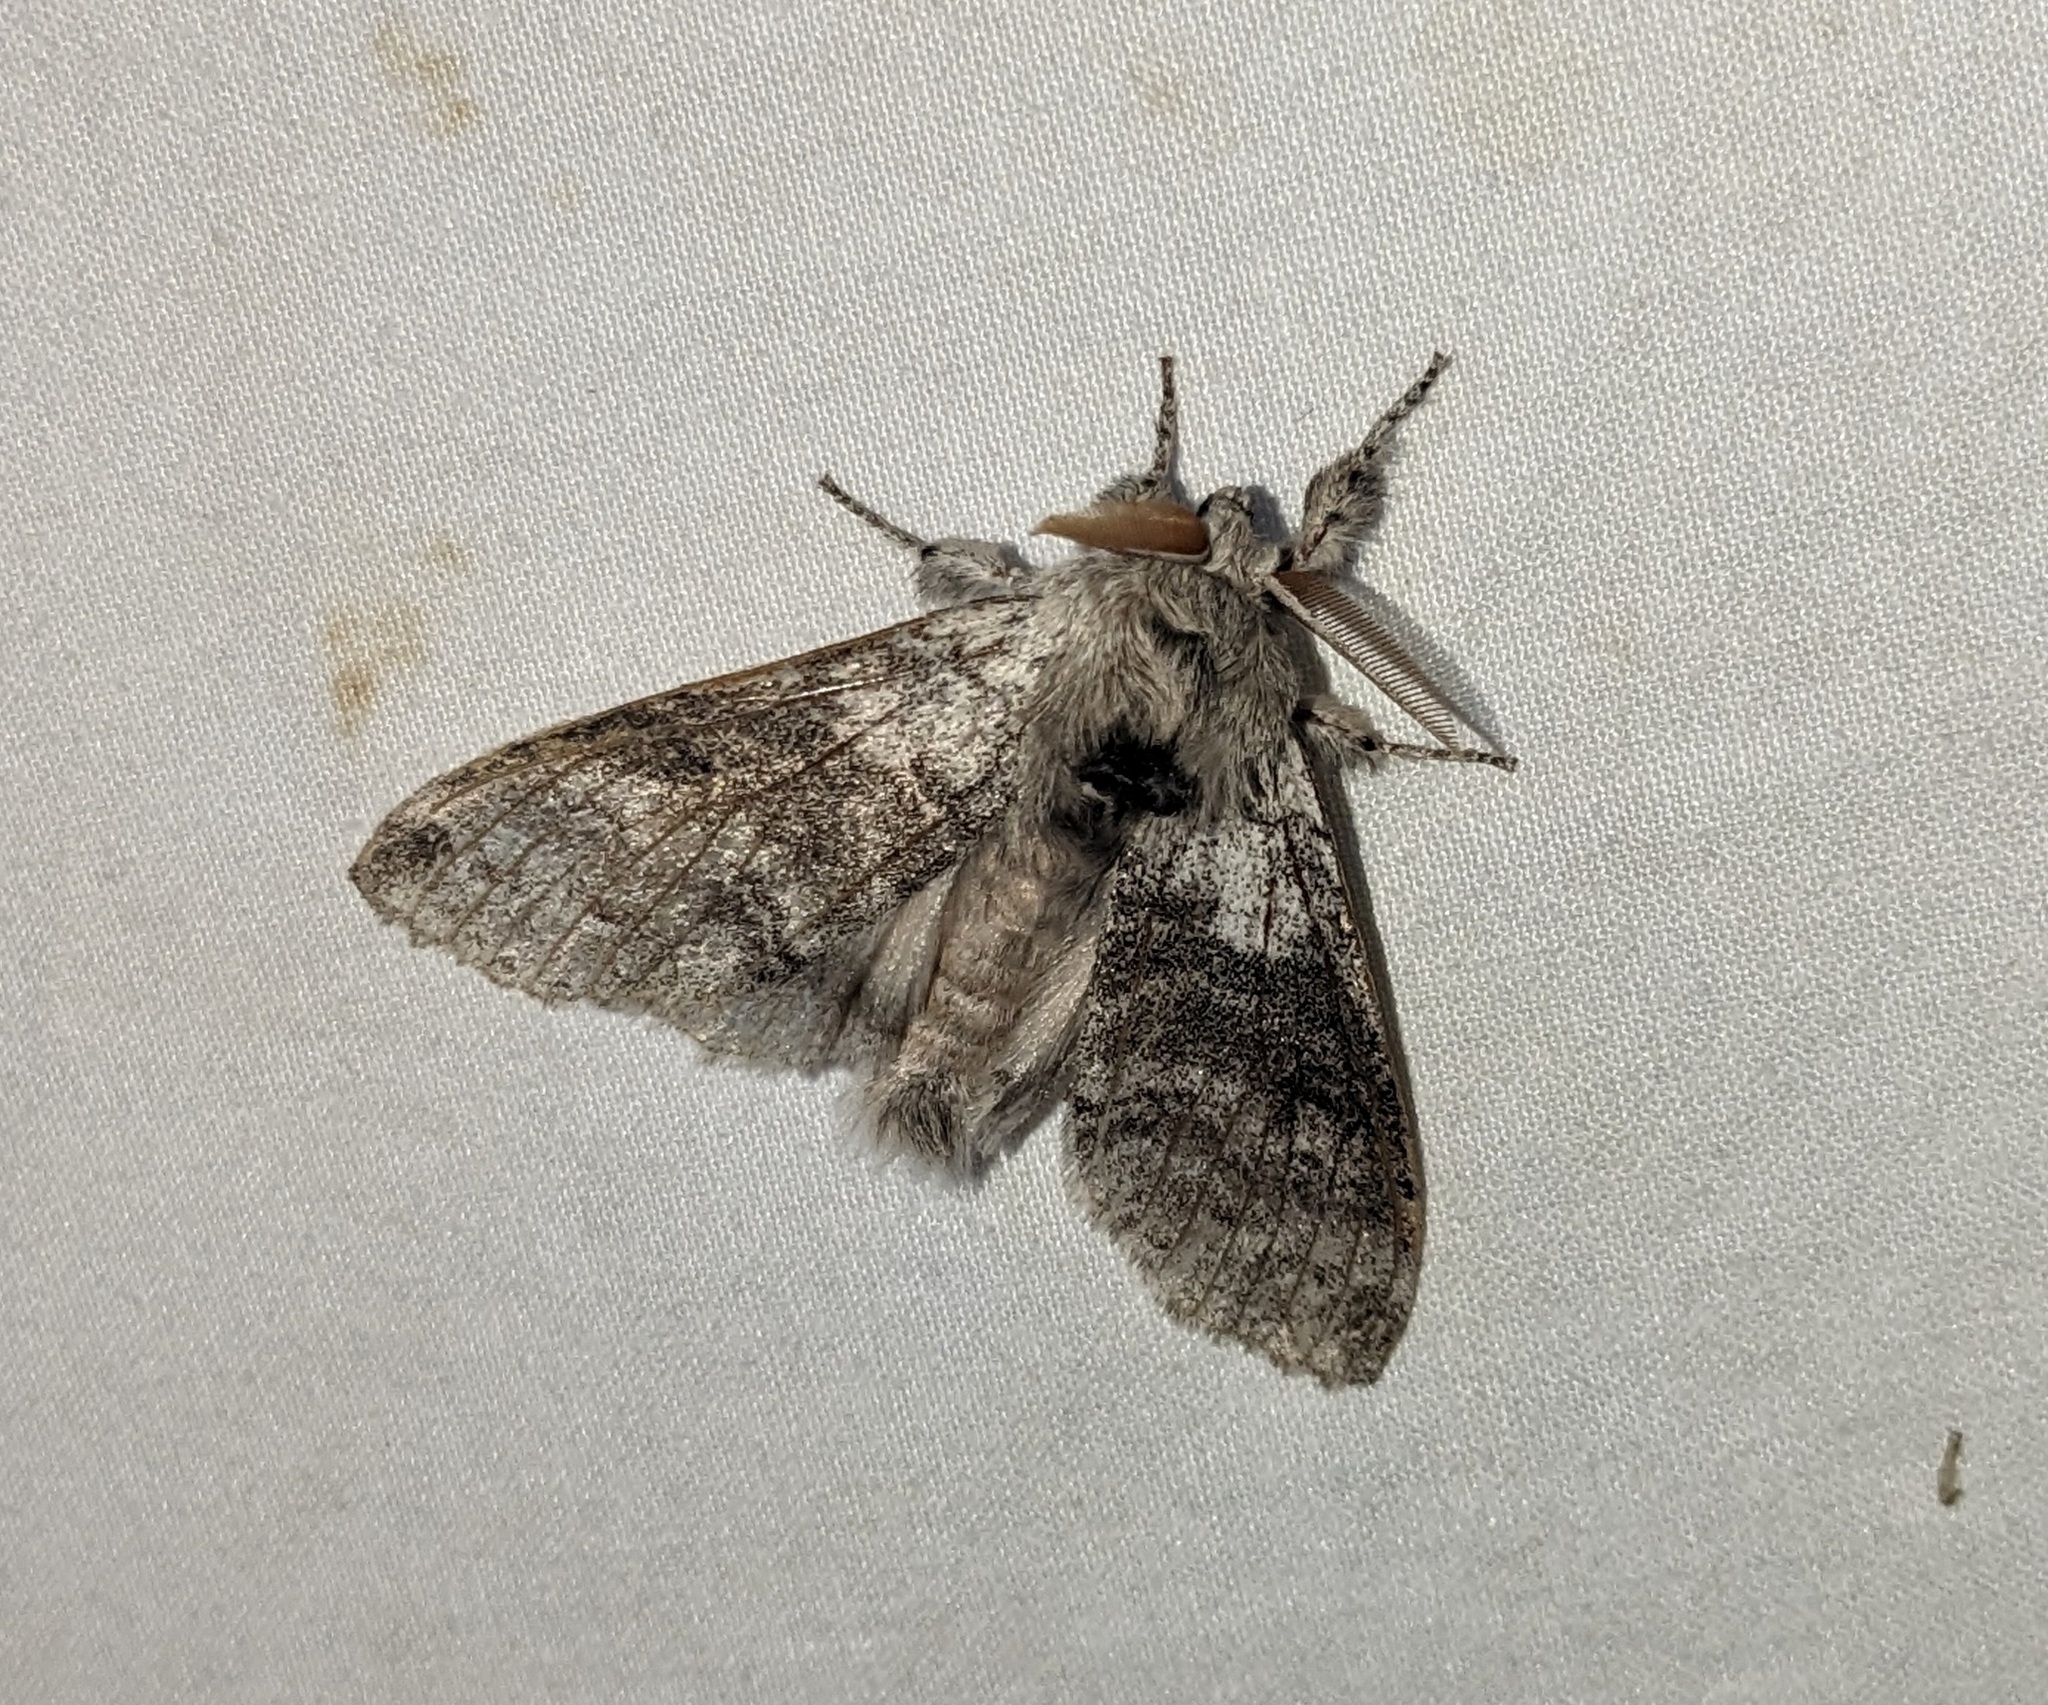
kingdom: Animalia
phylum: Arthropoda
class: Insecta
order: Lepidoptera
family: Erebidae
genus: Calliteara
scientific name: Calliteara pudibunda
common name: Pale tussock
